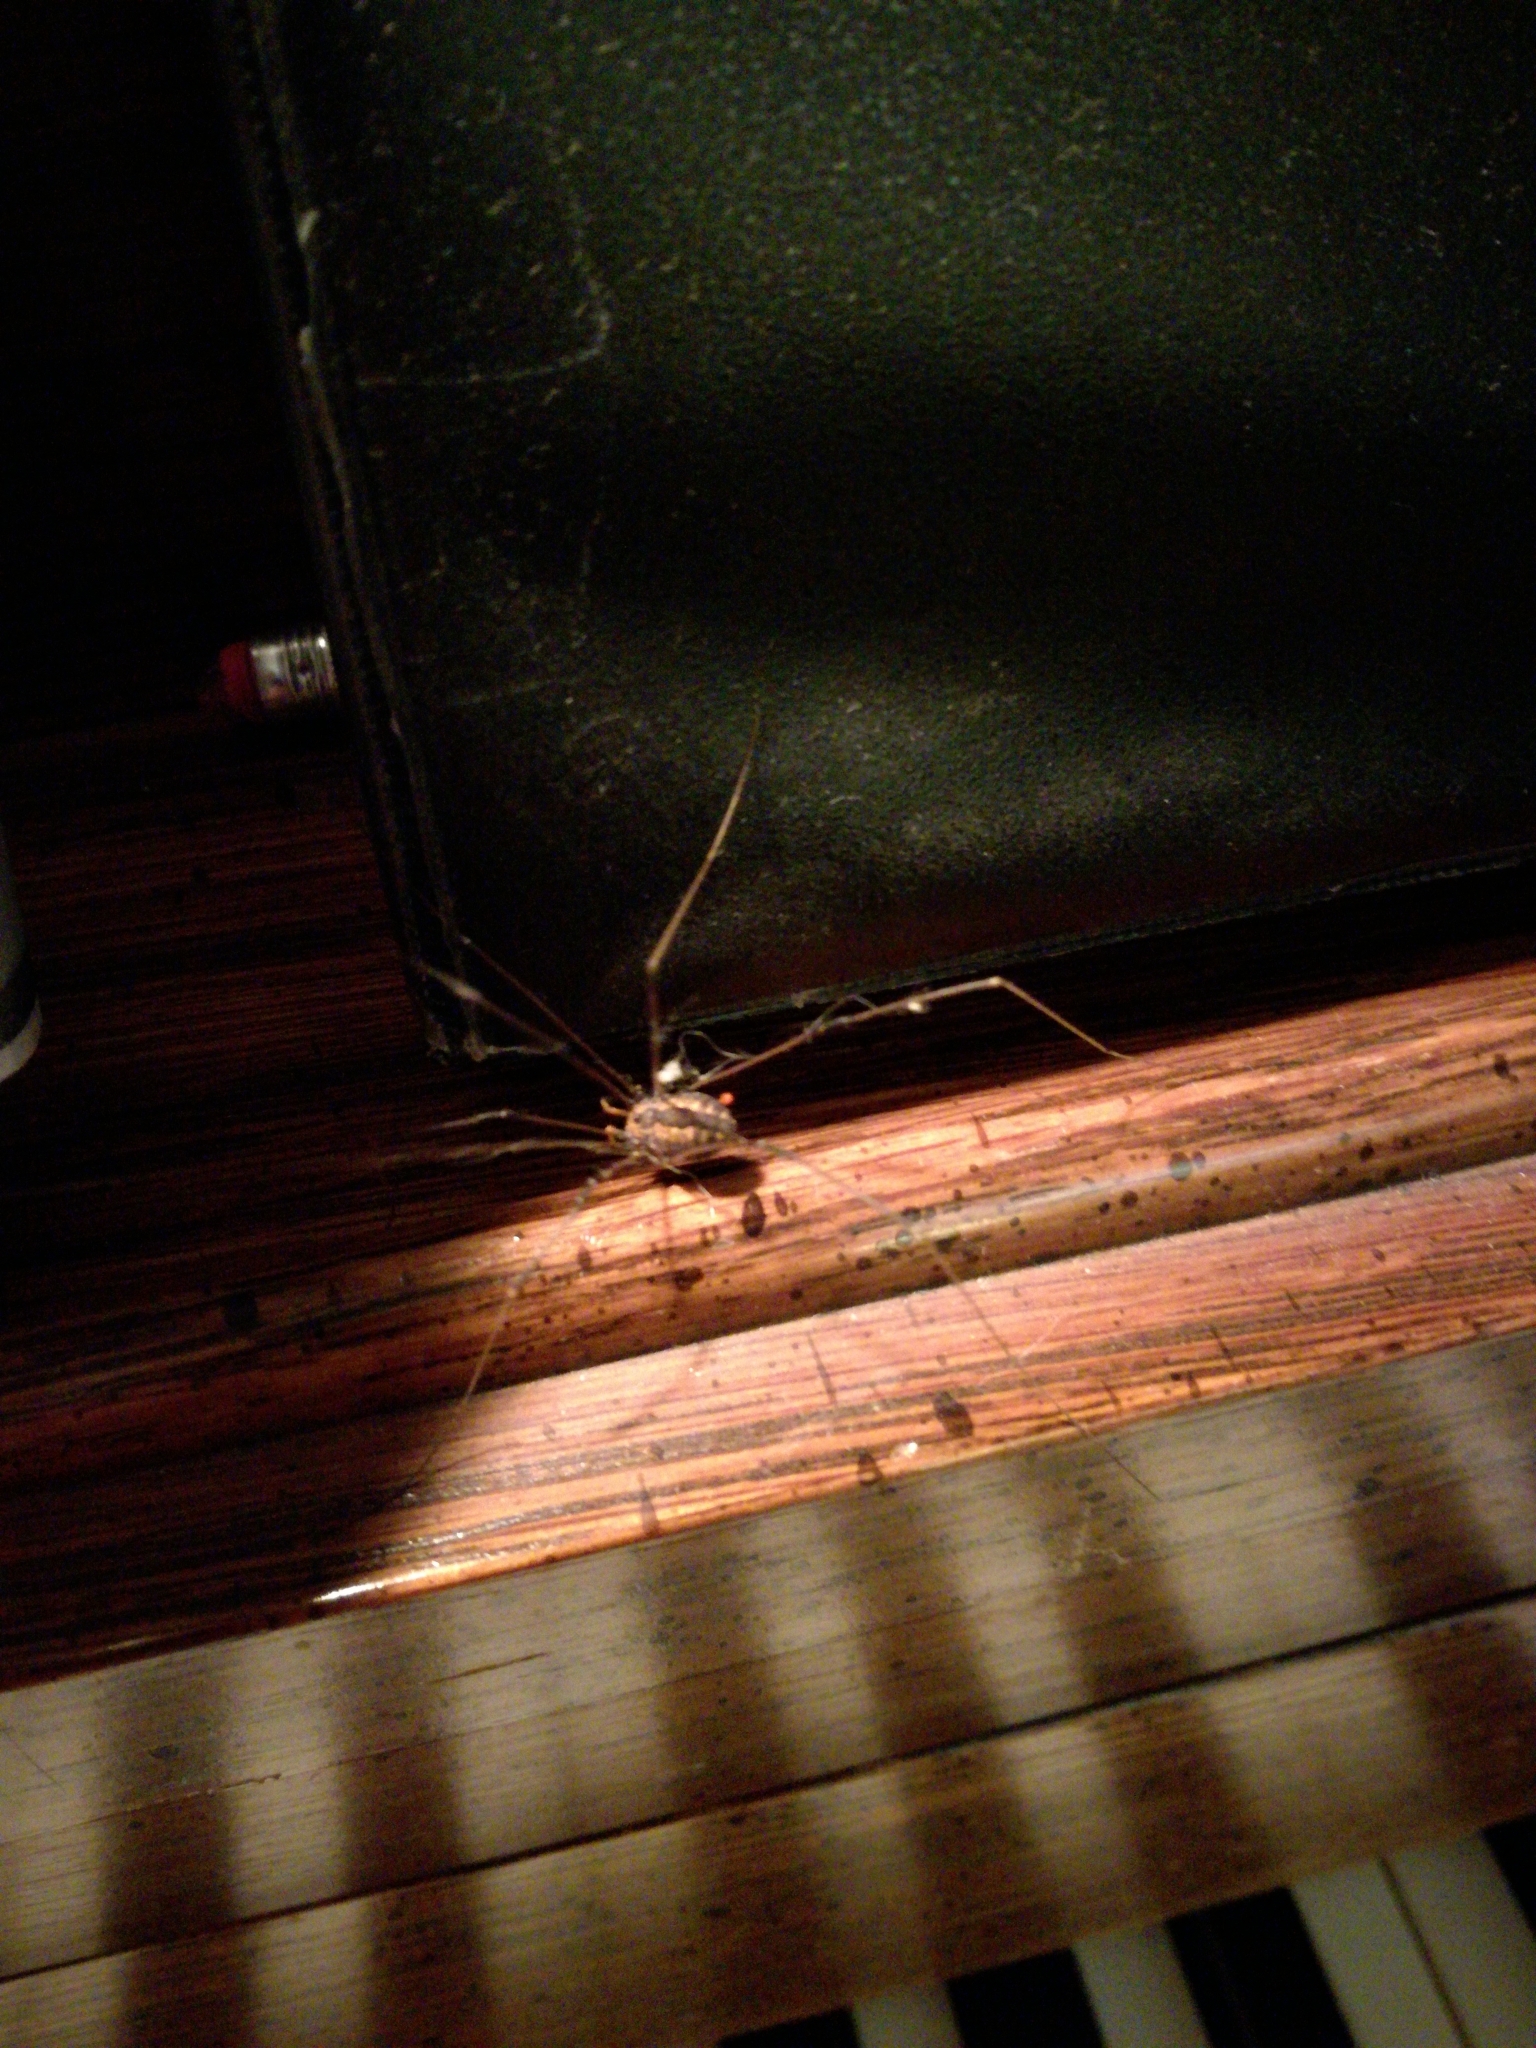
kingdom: Animalia
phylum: Arthropoda
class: Arachnida
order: Opiliones
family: Sclerosomatidae
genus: Leiobunum
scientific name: Leiobunum vittatum
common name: Eastern harvestman
